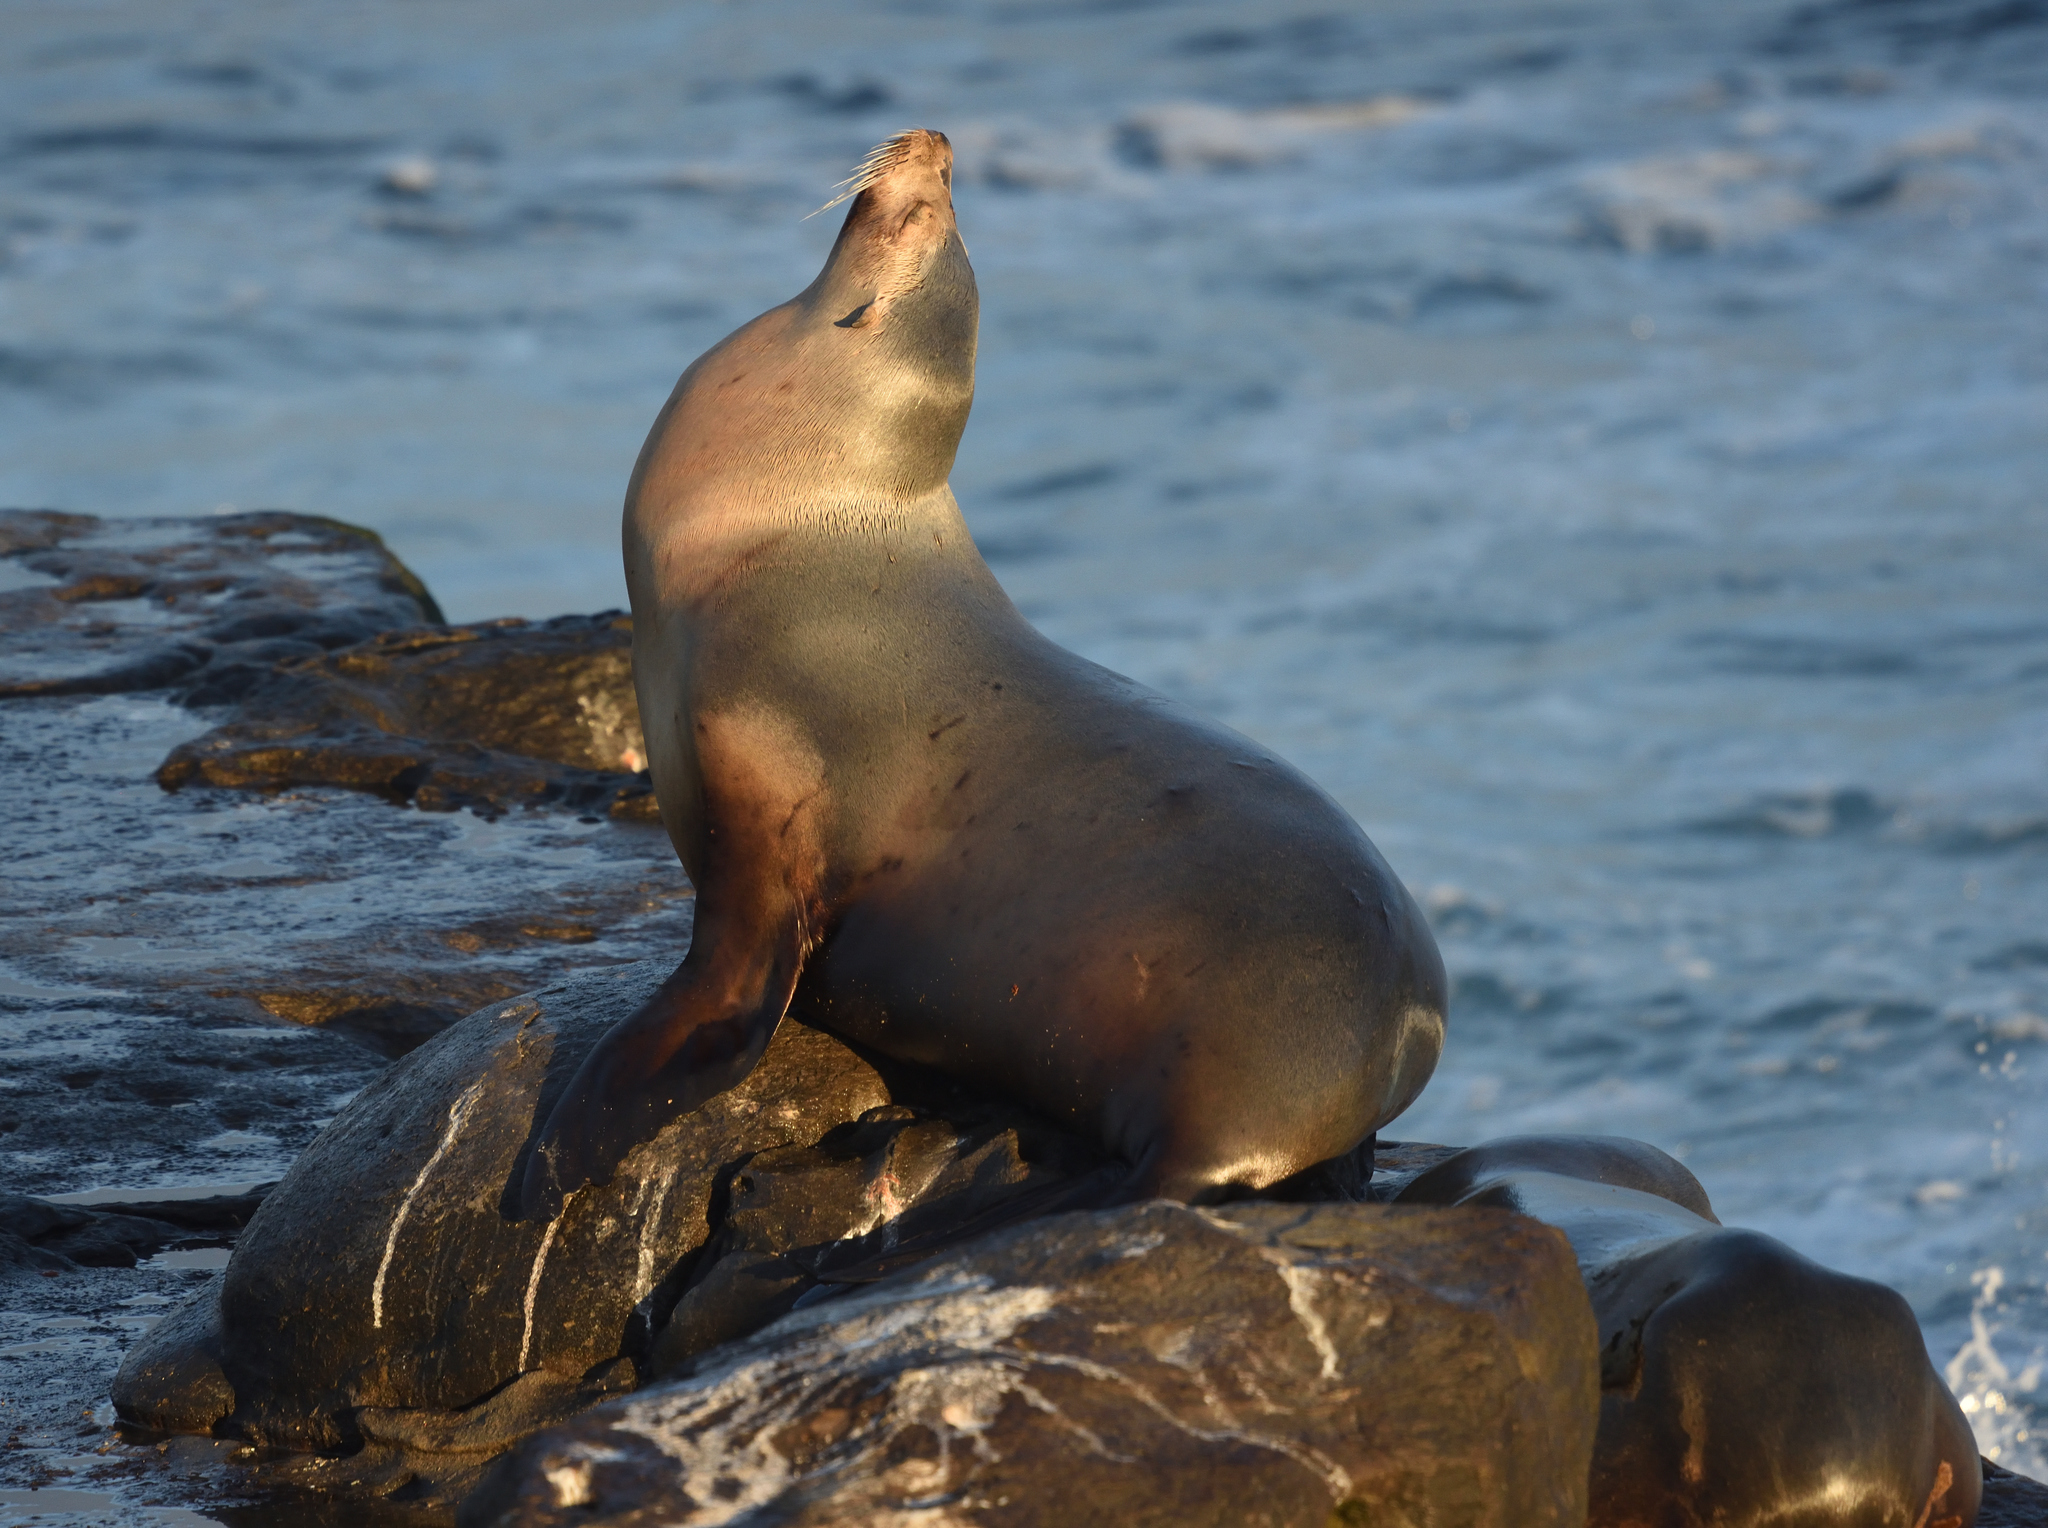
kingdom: Animalia
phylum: Chordata
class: Mammalia
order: Carnivora
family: Otariidae
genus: Zalophus
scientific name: Zalophus californianus
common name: California sea lion
